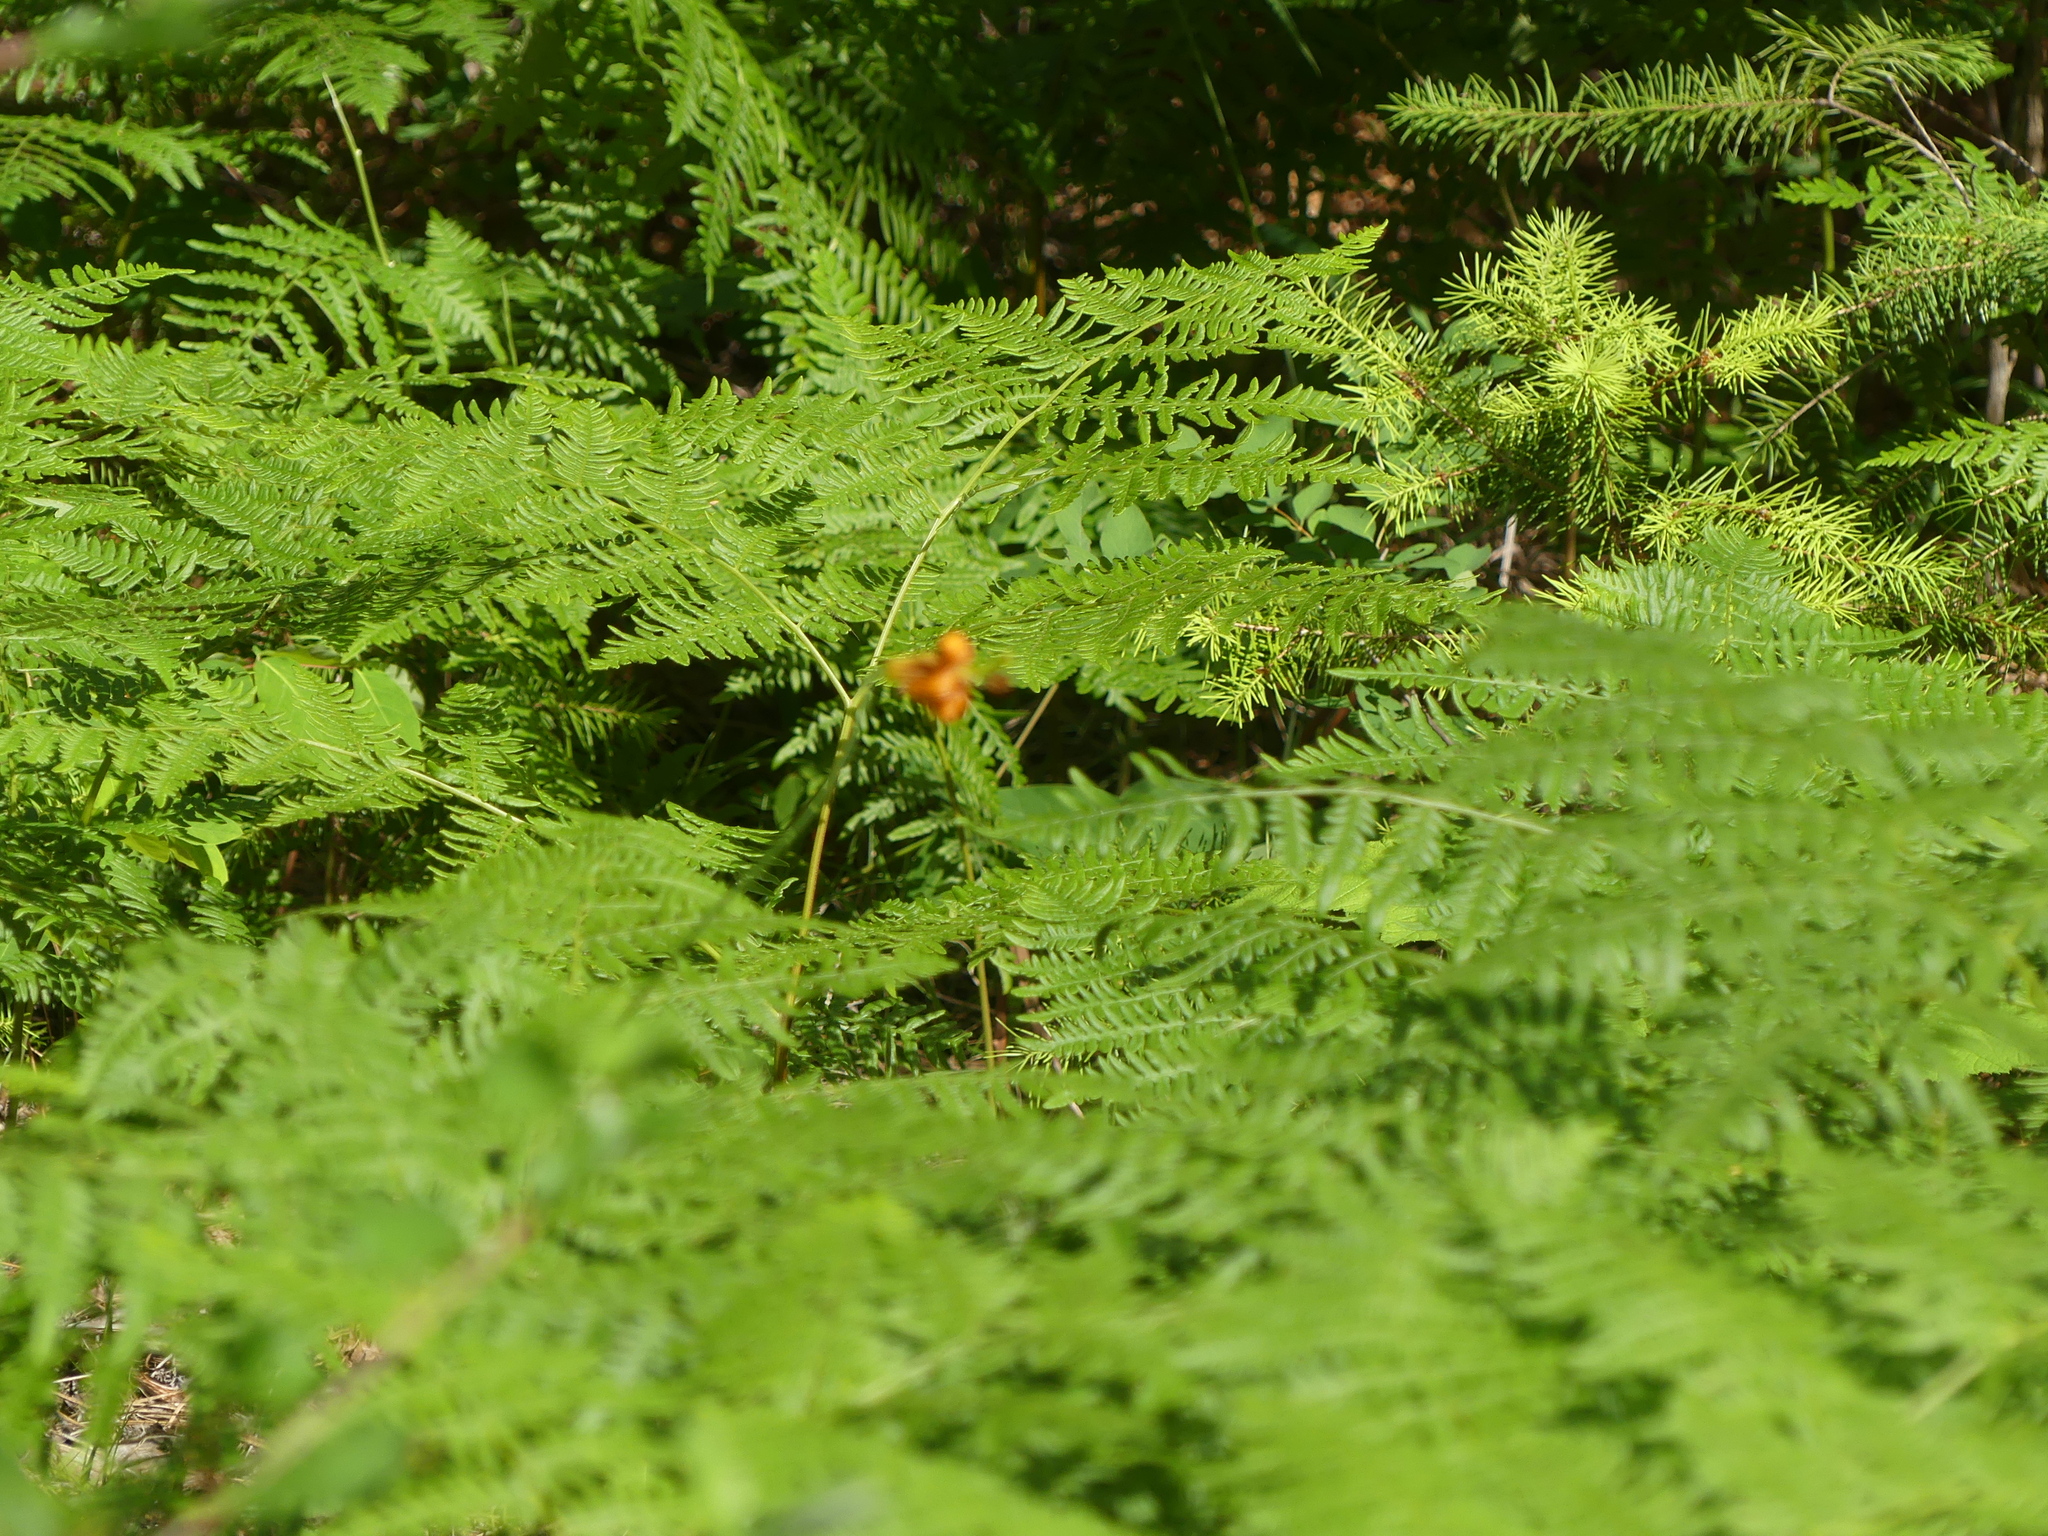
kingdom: Plantae
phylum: Tracheophyta
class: Liliopsida
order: Liliales
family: Liliaceae
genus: Lilium
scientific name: Lilium columbianum
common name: Columbia lily
